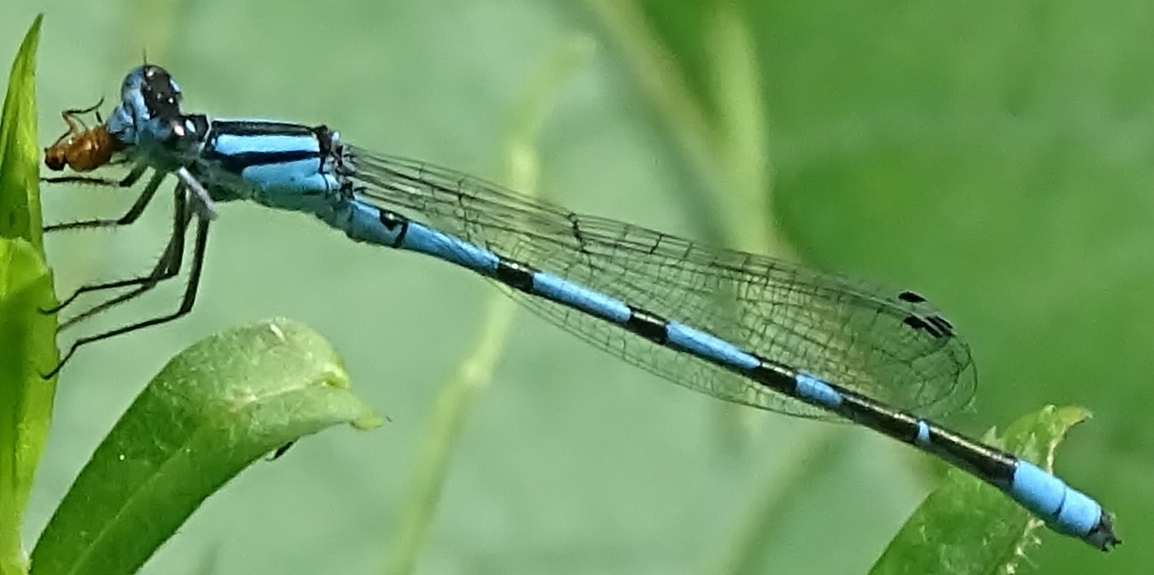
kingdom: Animalia
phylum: Arthropoda
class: Insecta
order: Odonata
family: Coenagrionidae
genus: Enallagma
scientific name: Enallagma ebrium
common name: Marsh bluet
